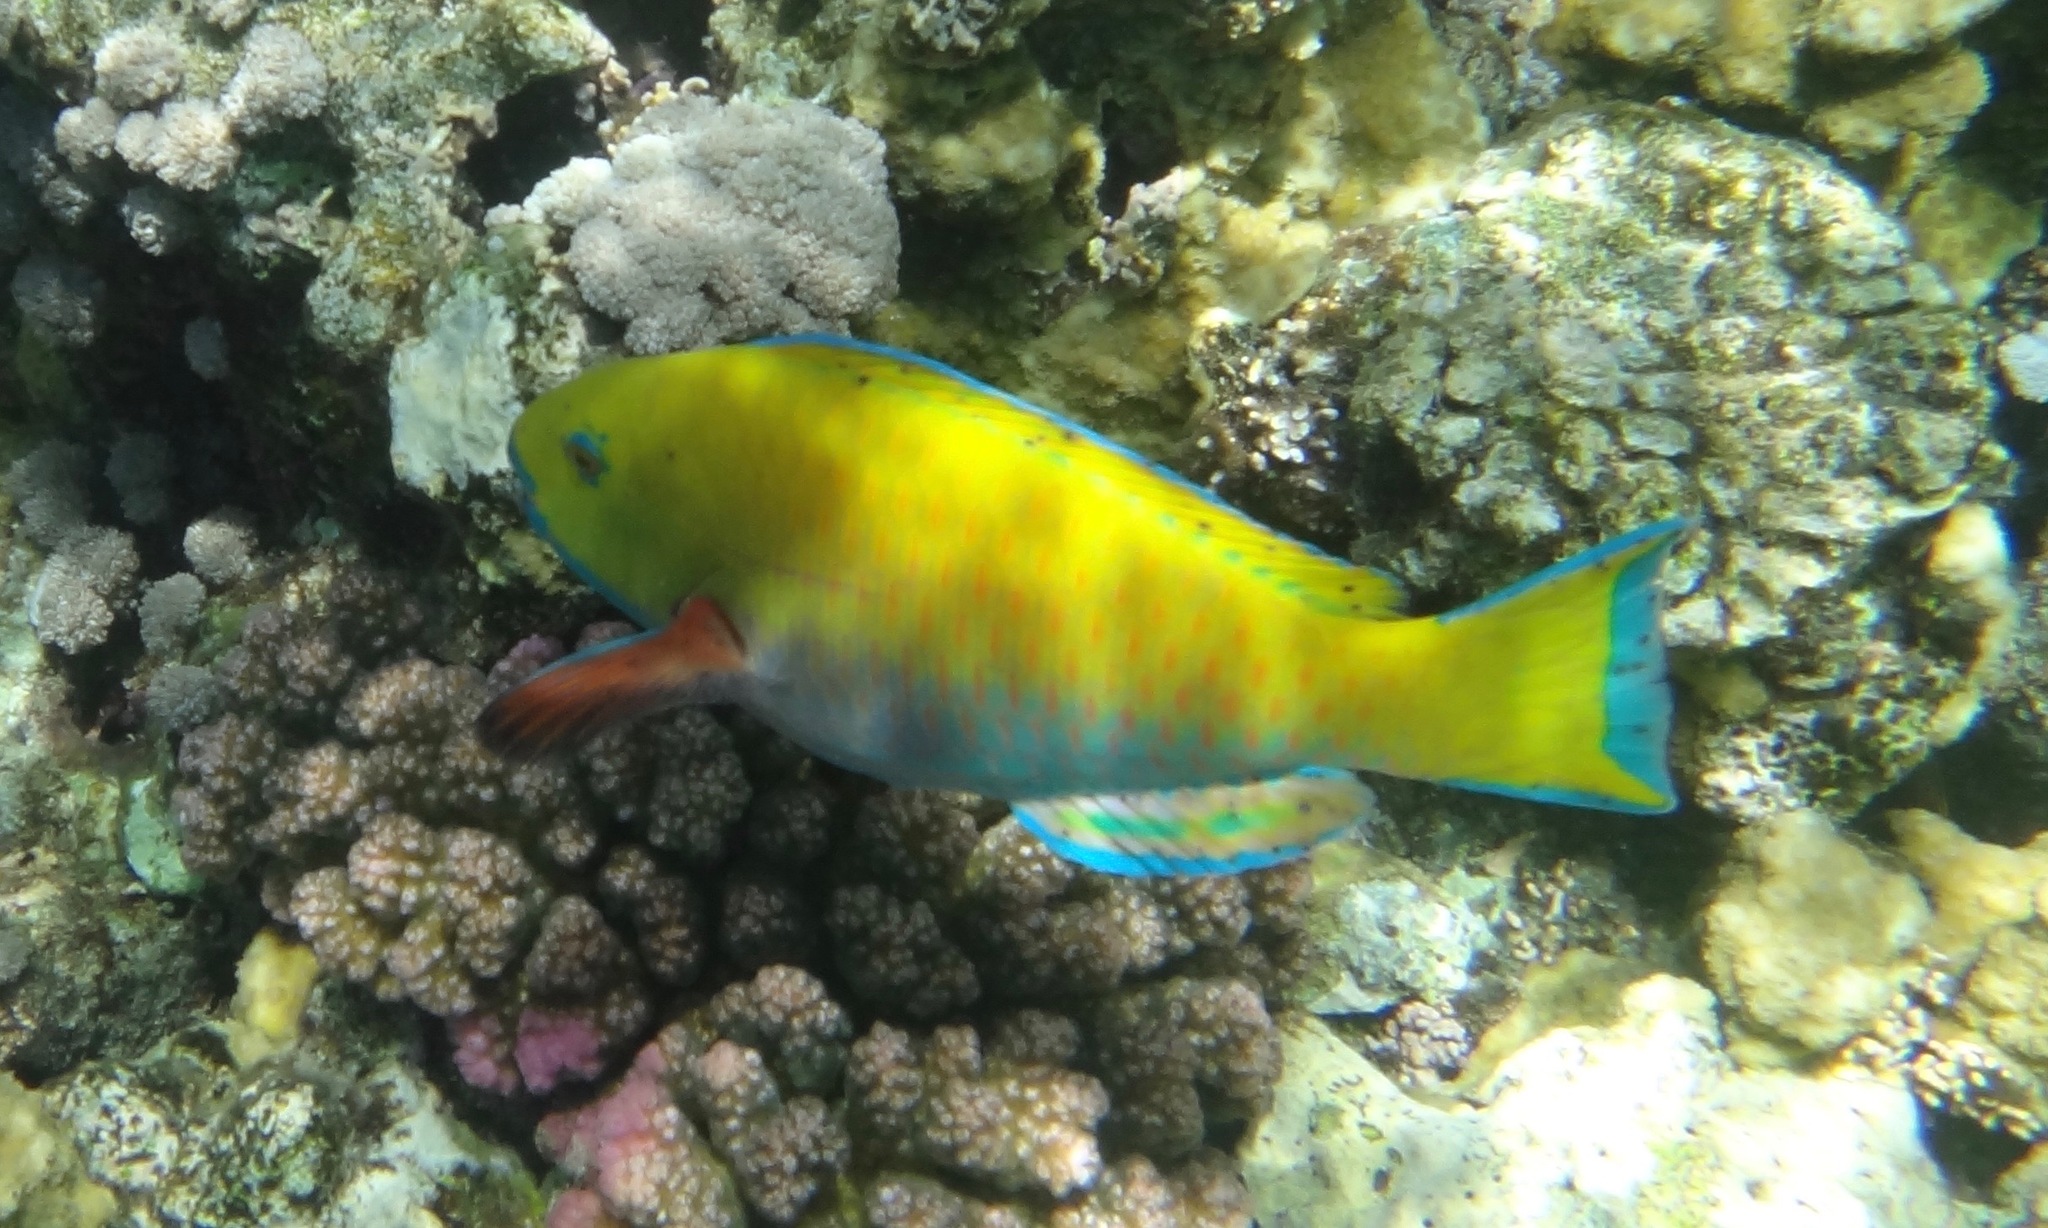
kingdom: Animalia
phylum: Chordata
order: Perciformes
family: Scaridae
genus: Chlorurus
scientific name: Chlorurus gibbus
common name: Heavybeak parrotfish
